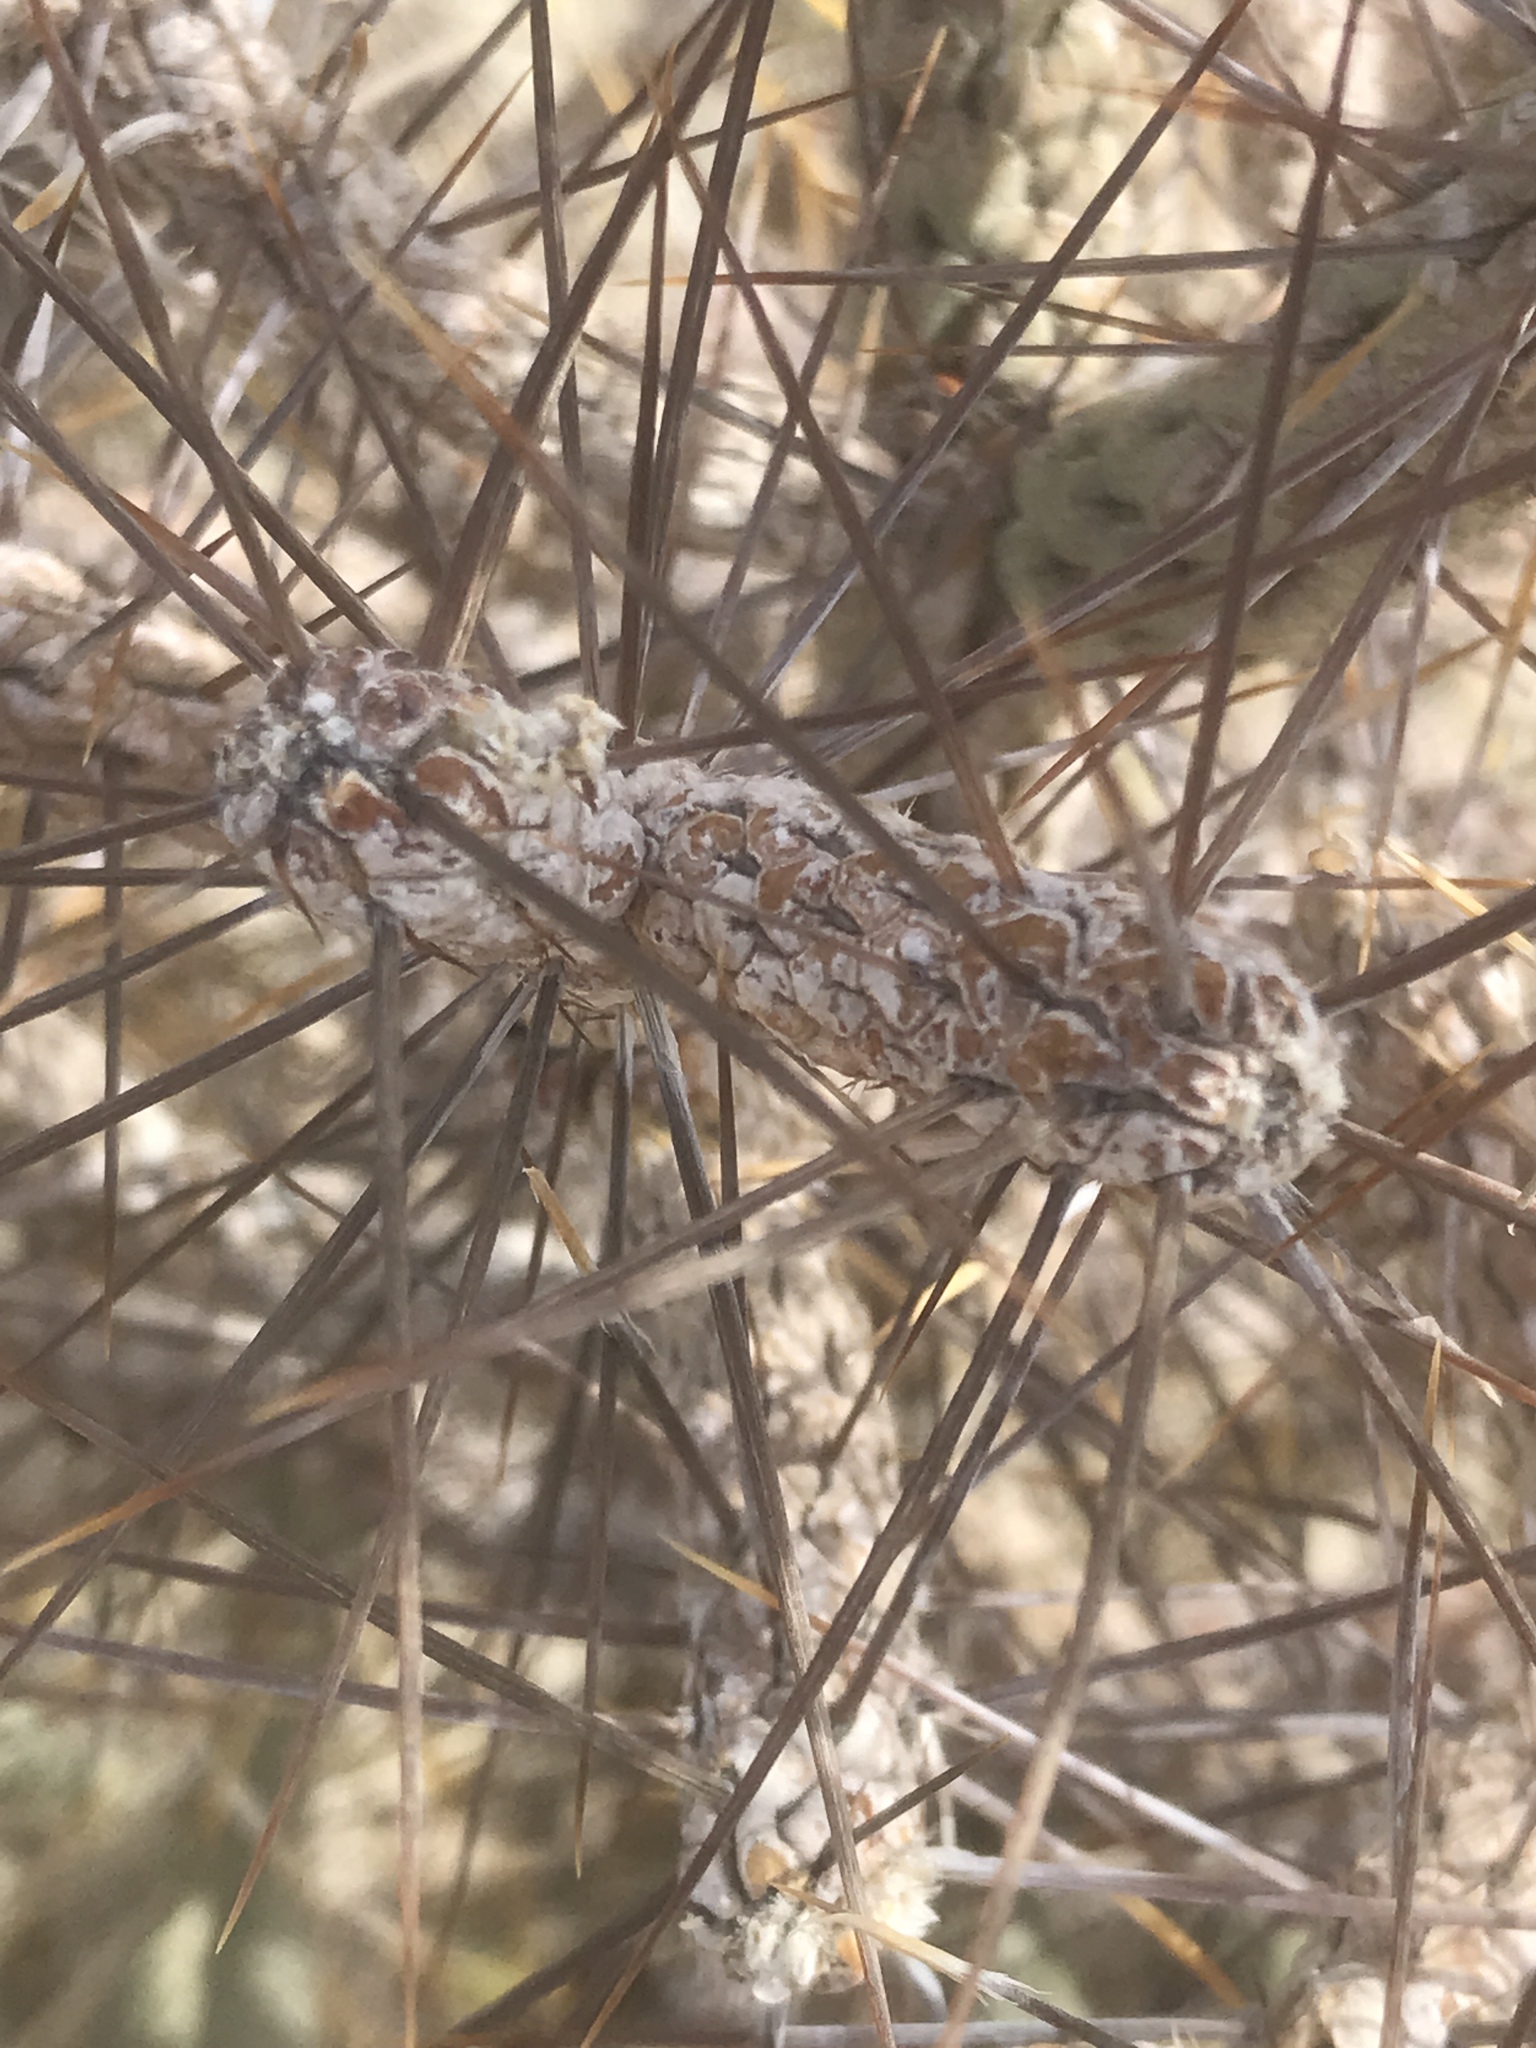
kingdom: Plantae
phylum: Tracheophyta
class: Magnoliopsida
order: Caryophyllales
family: Cactaceae
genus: Cylindropuntia
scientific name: Cylindropuntia ramosissima
